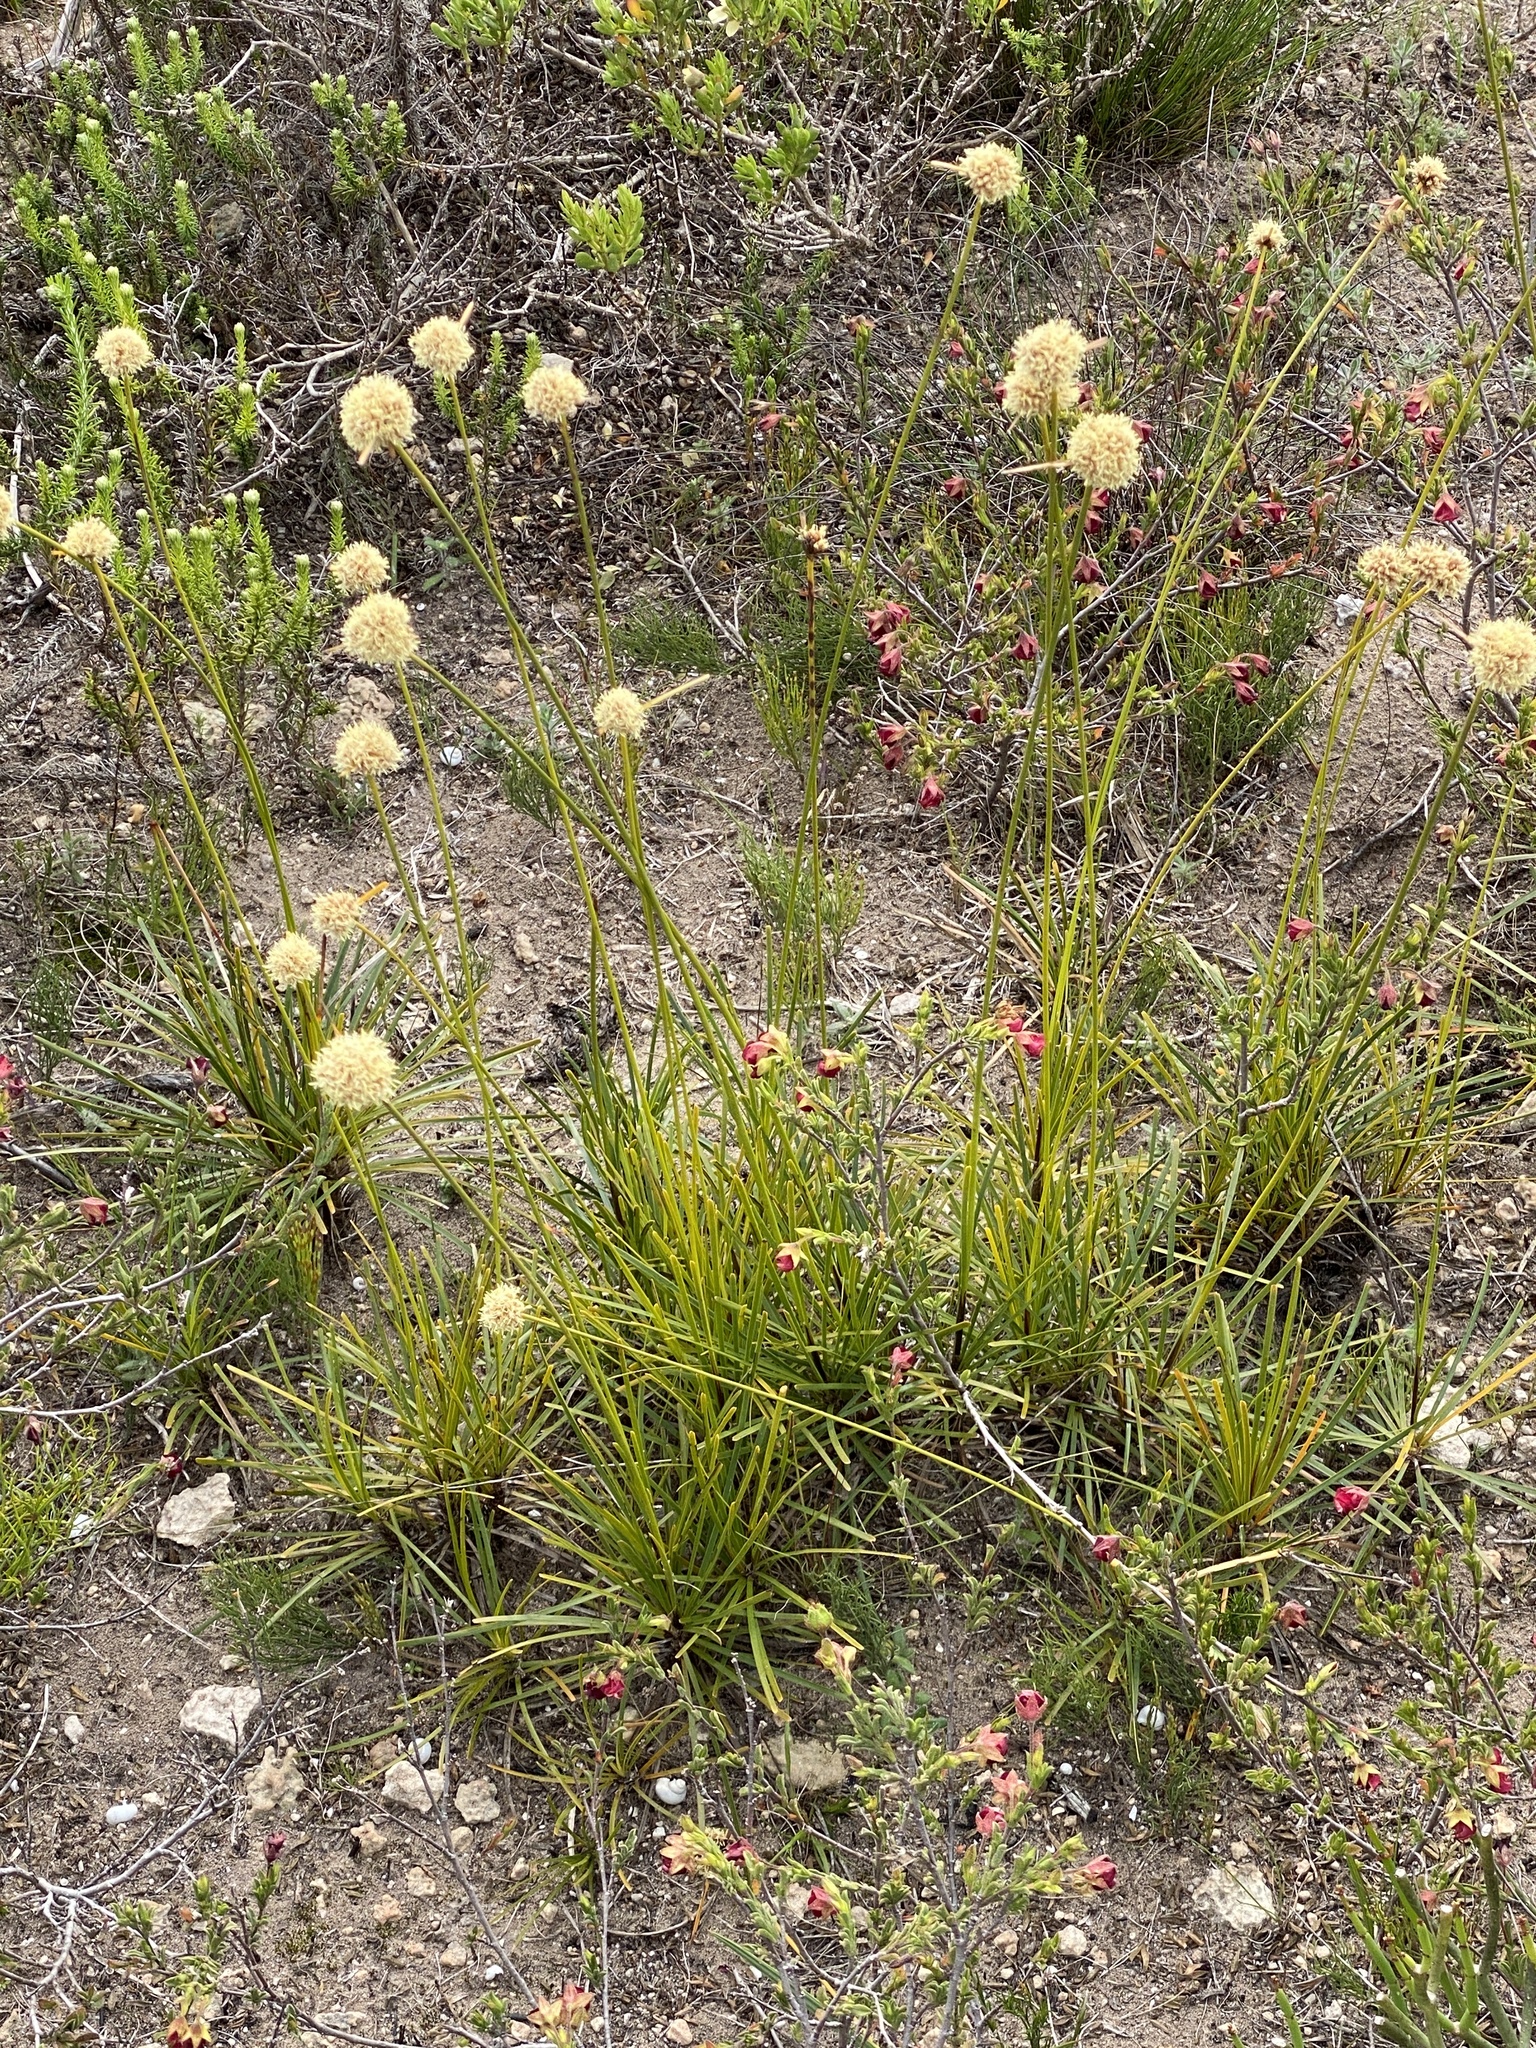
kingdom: Plantae
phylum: Tracheophyta
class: Liliopsida
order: Poales
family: Cyperaceae
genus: Ficinia
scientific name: Ficinia praemorsa
